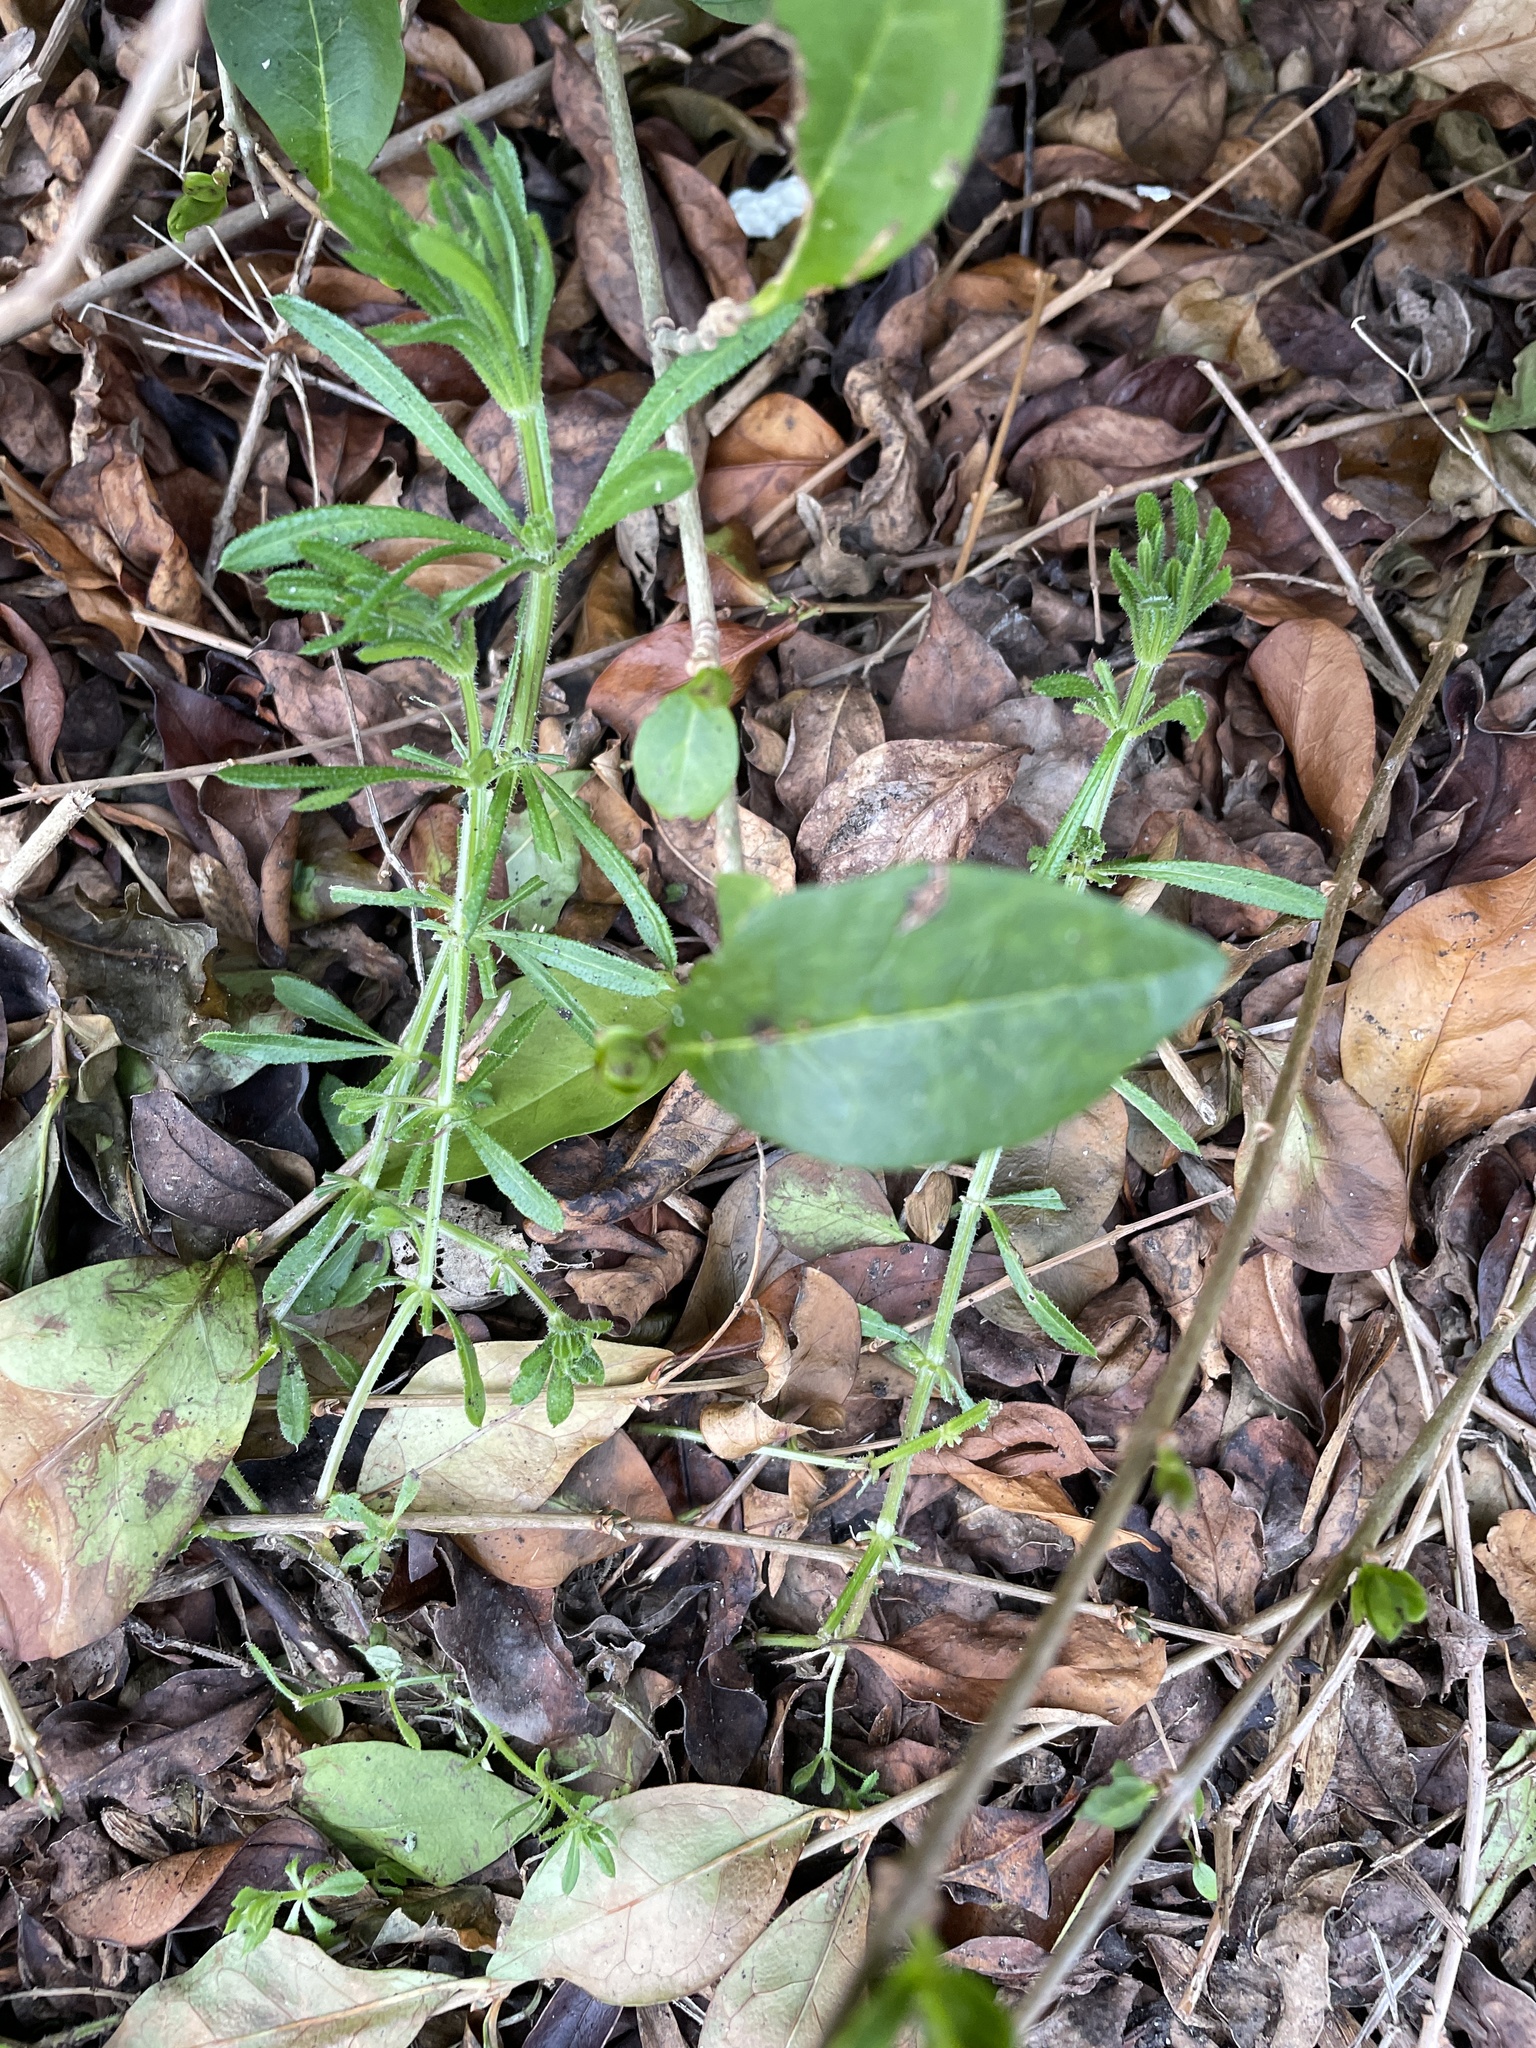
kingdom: Plantae
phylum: Tracheophyta
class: Magnoliopsida
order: Gentianales
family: Rubiaceae
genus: Galium
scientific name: Galium aparine
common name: Cleavers
